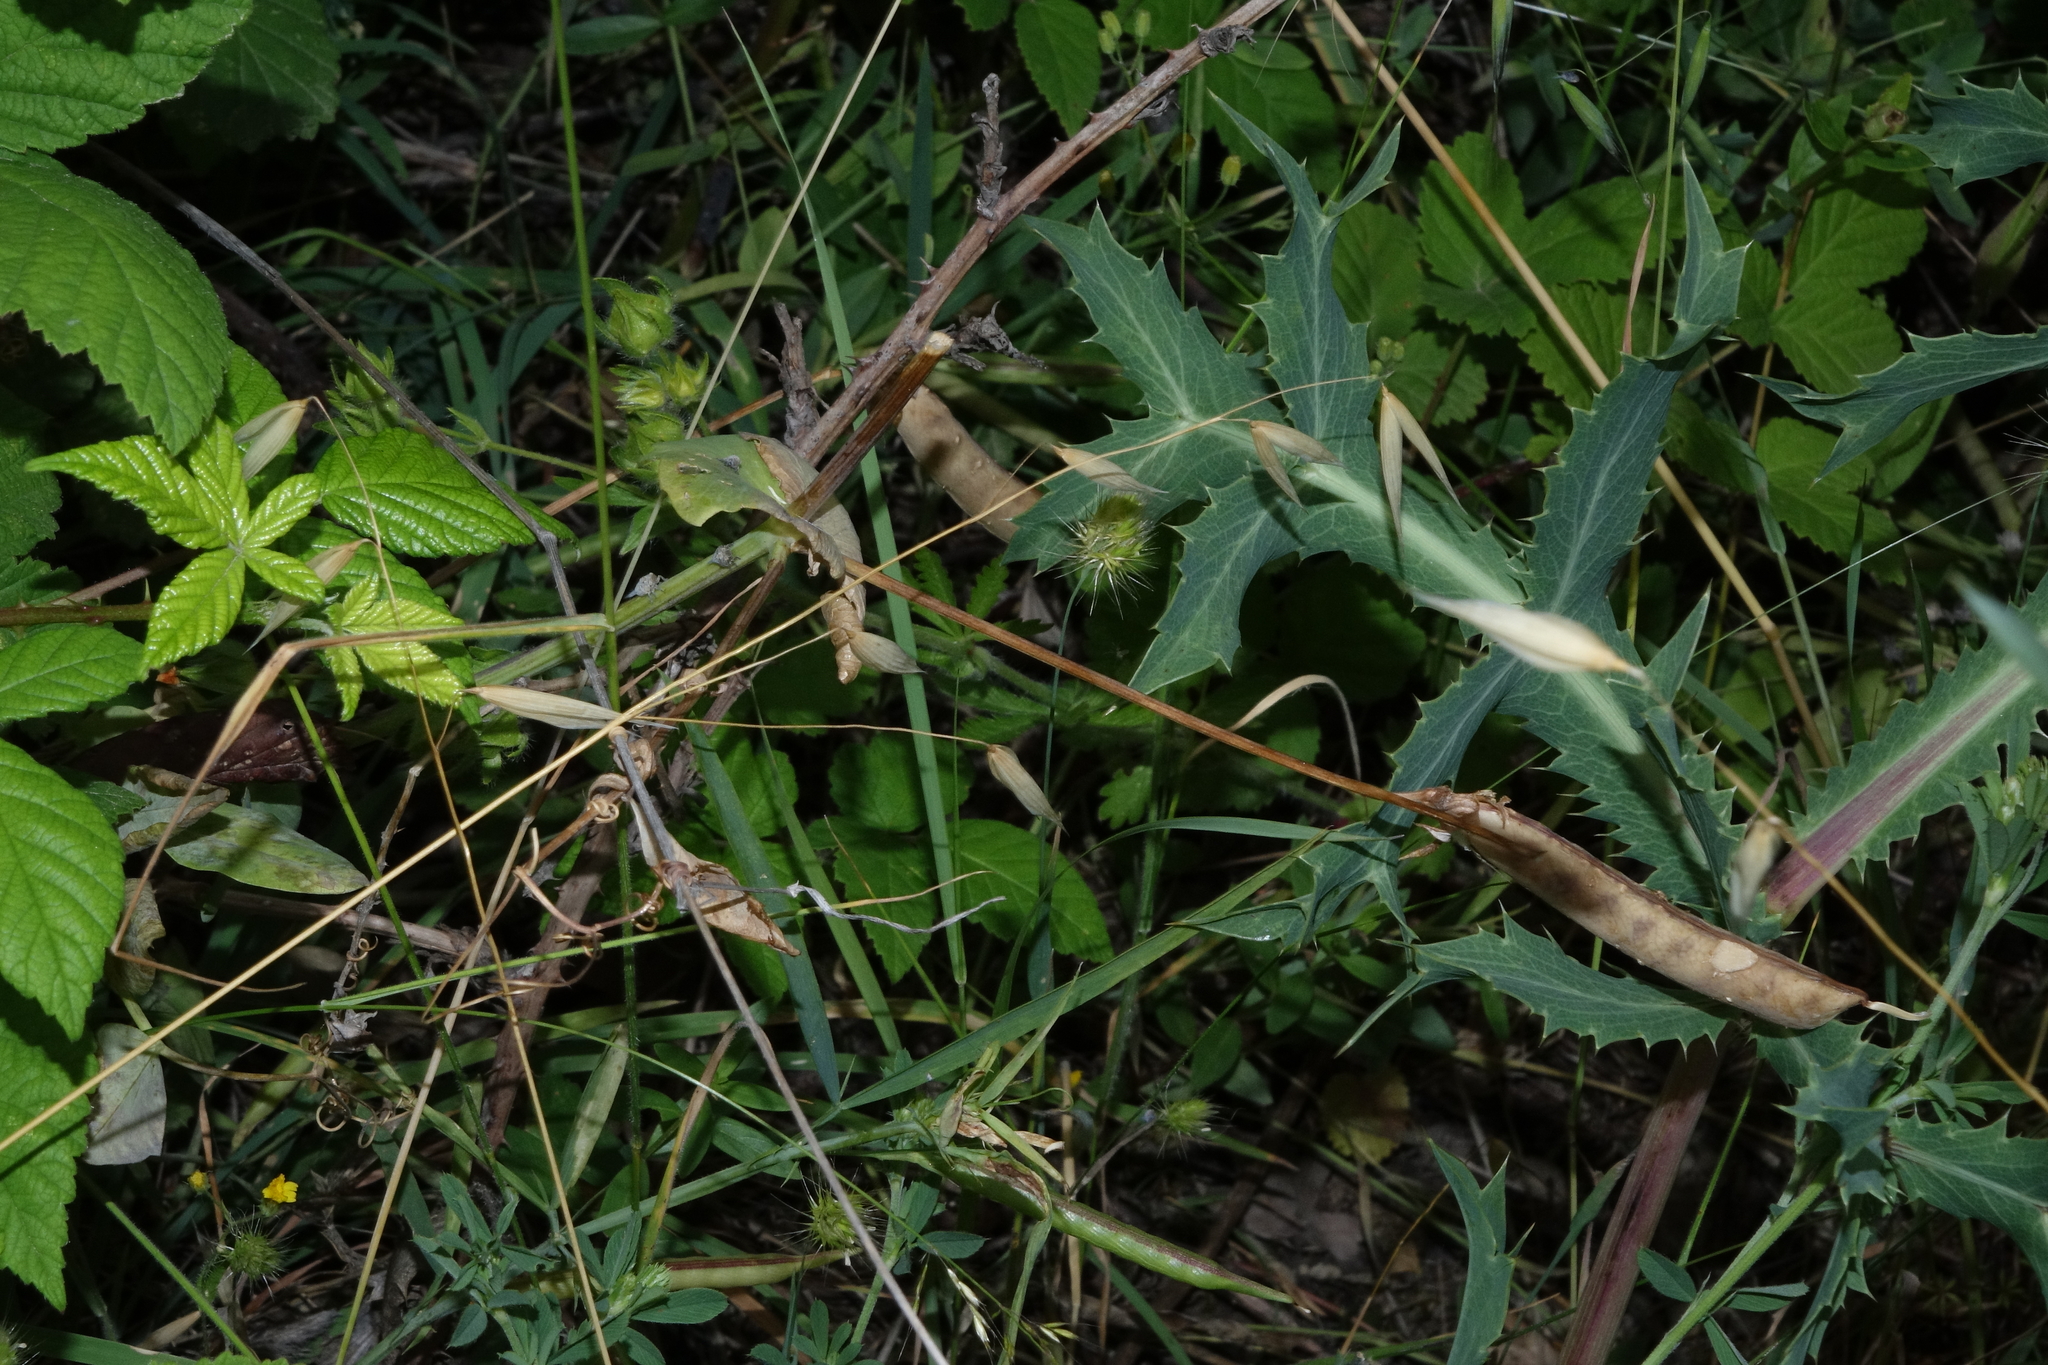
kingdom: Plantae
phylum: Tracheophyta
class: Magnoliopsida
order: Fabales
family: Fabaceae
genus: Lathyrus
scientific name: Lathyrus oleraceus
